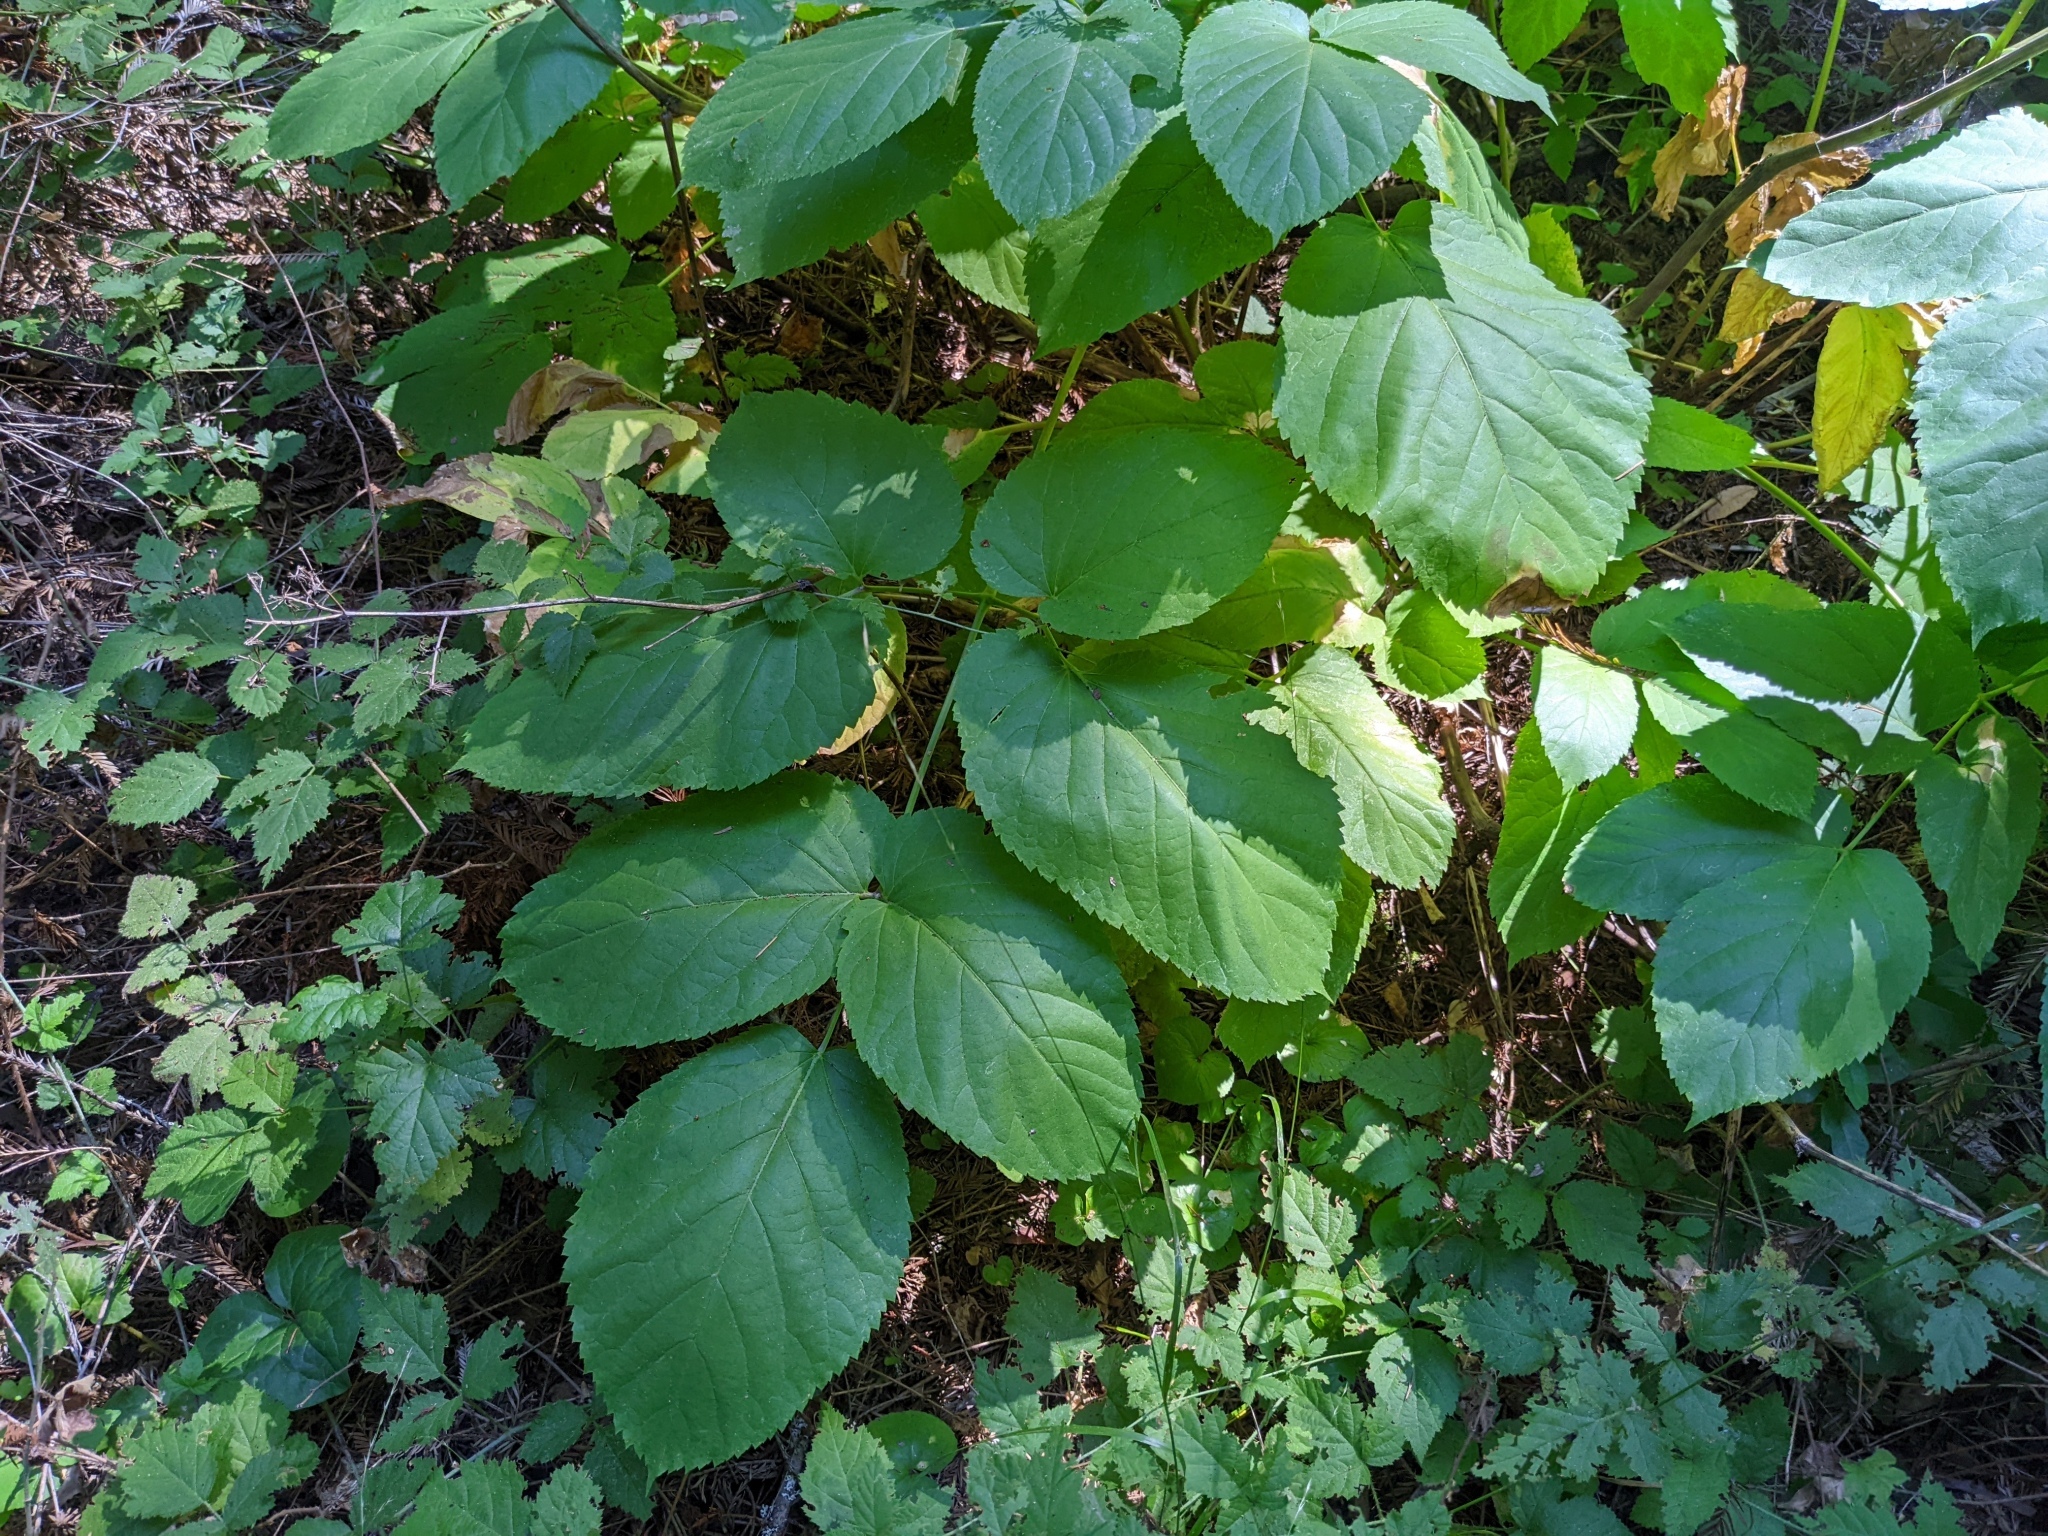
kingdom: Plantae
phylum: Tracheophyta
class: Magnoliopsida
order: Apiales
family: Araliaceae
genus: Aralia
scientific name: Aralia californica
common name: California-ginseng
